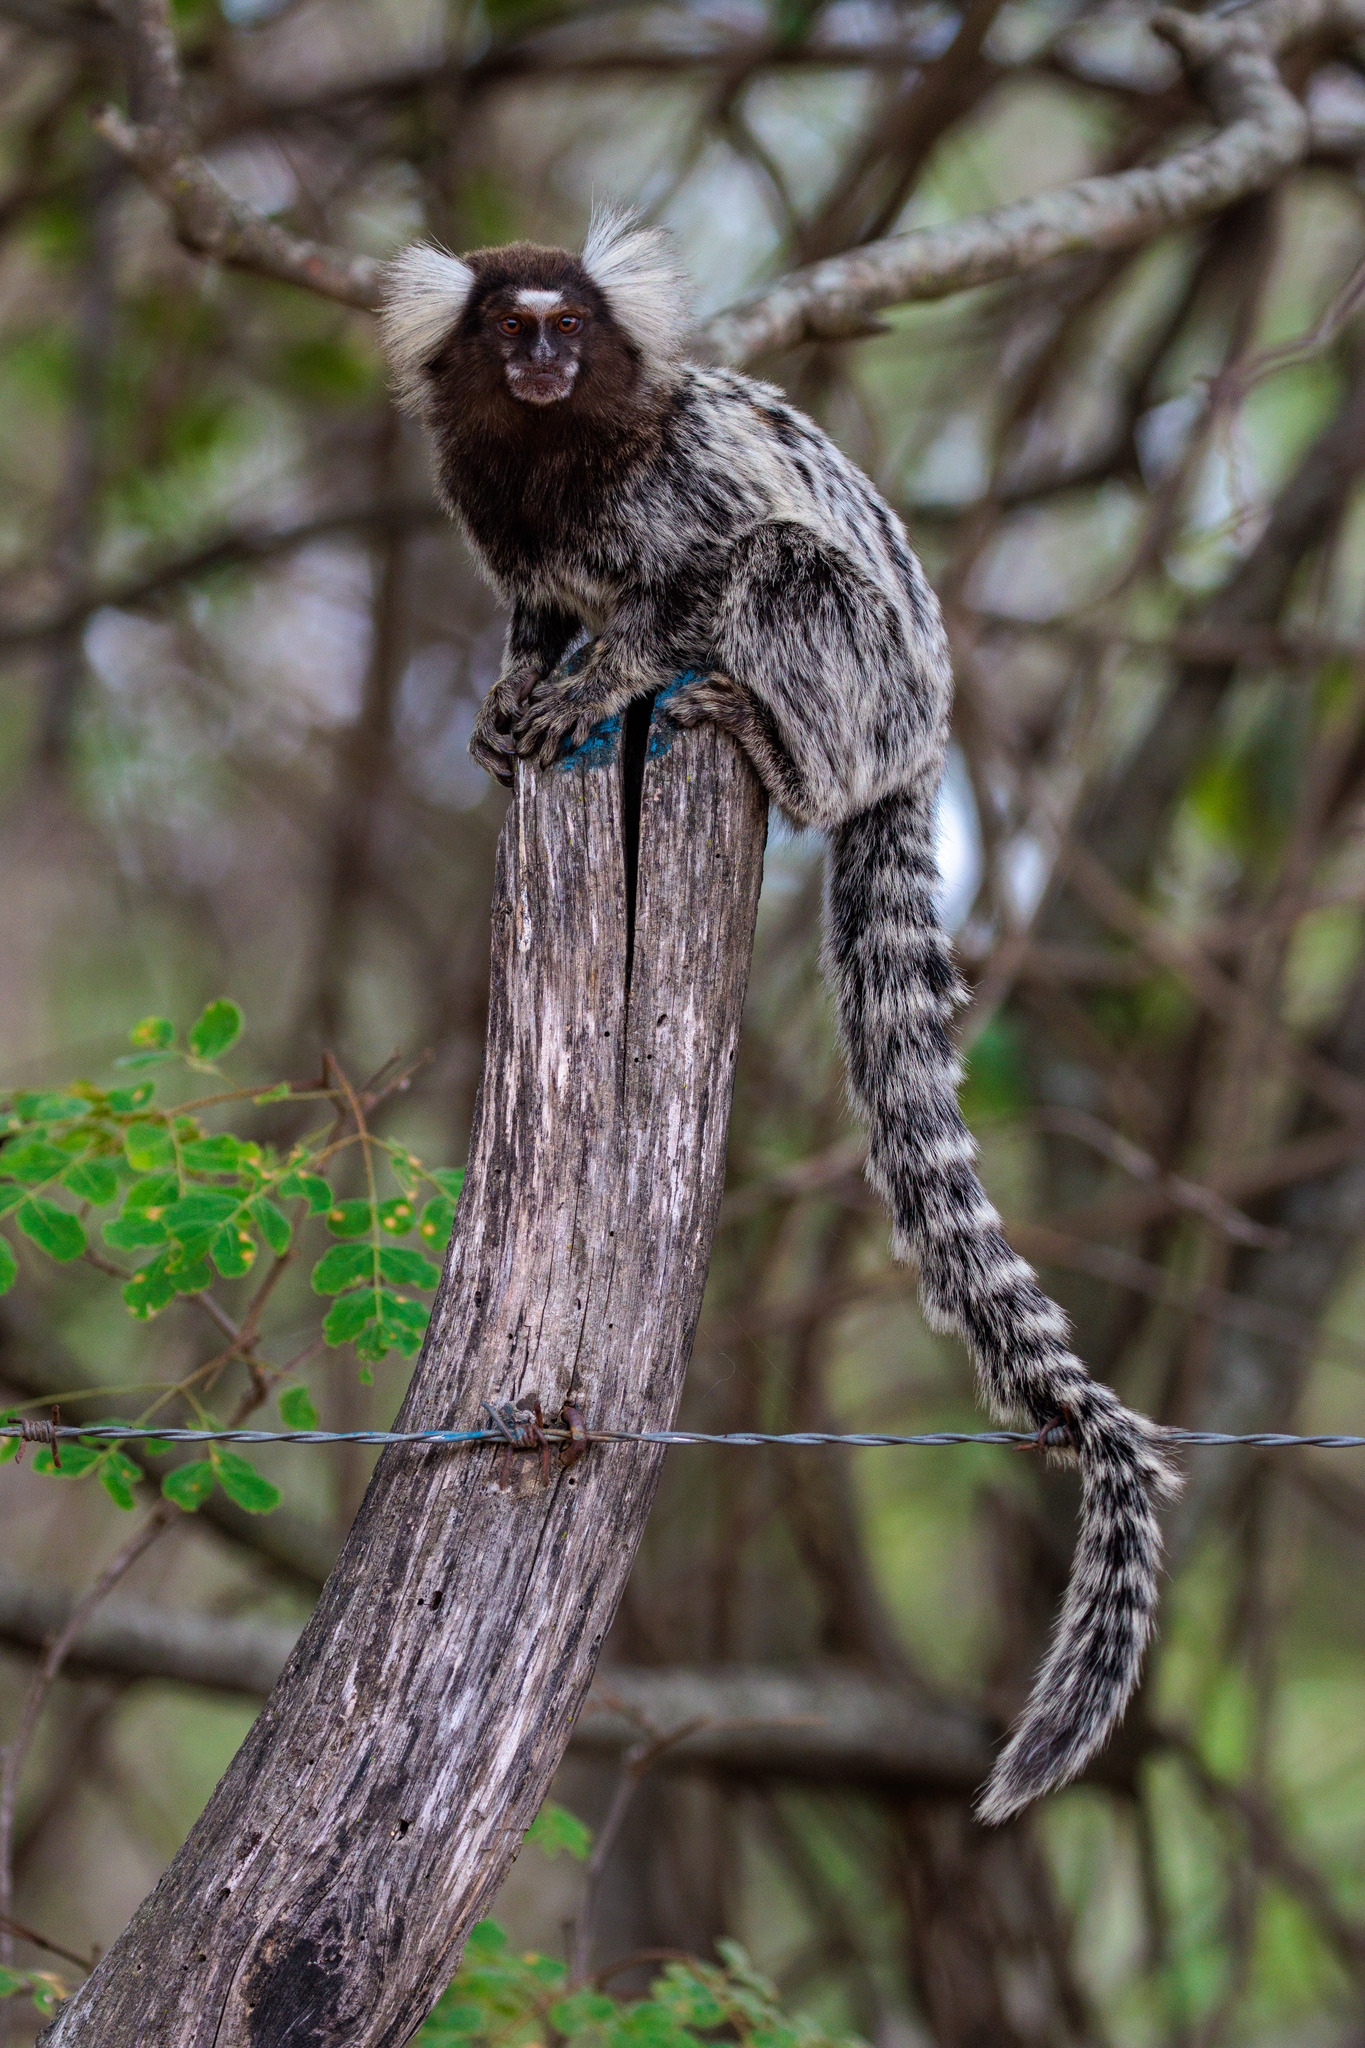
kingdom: Animalia
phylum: Chordata
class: Mammalia
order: Primates
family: Callitrichidae
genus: Callithrix
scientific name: Callithrix jacchus
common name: Common marmoset
